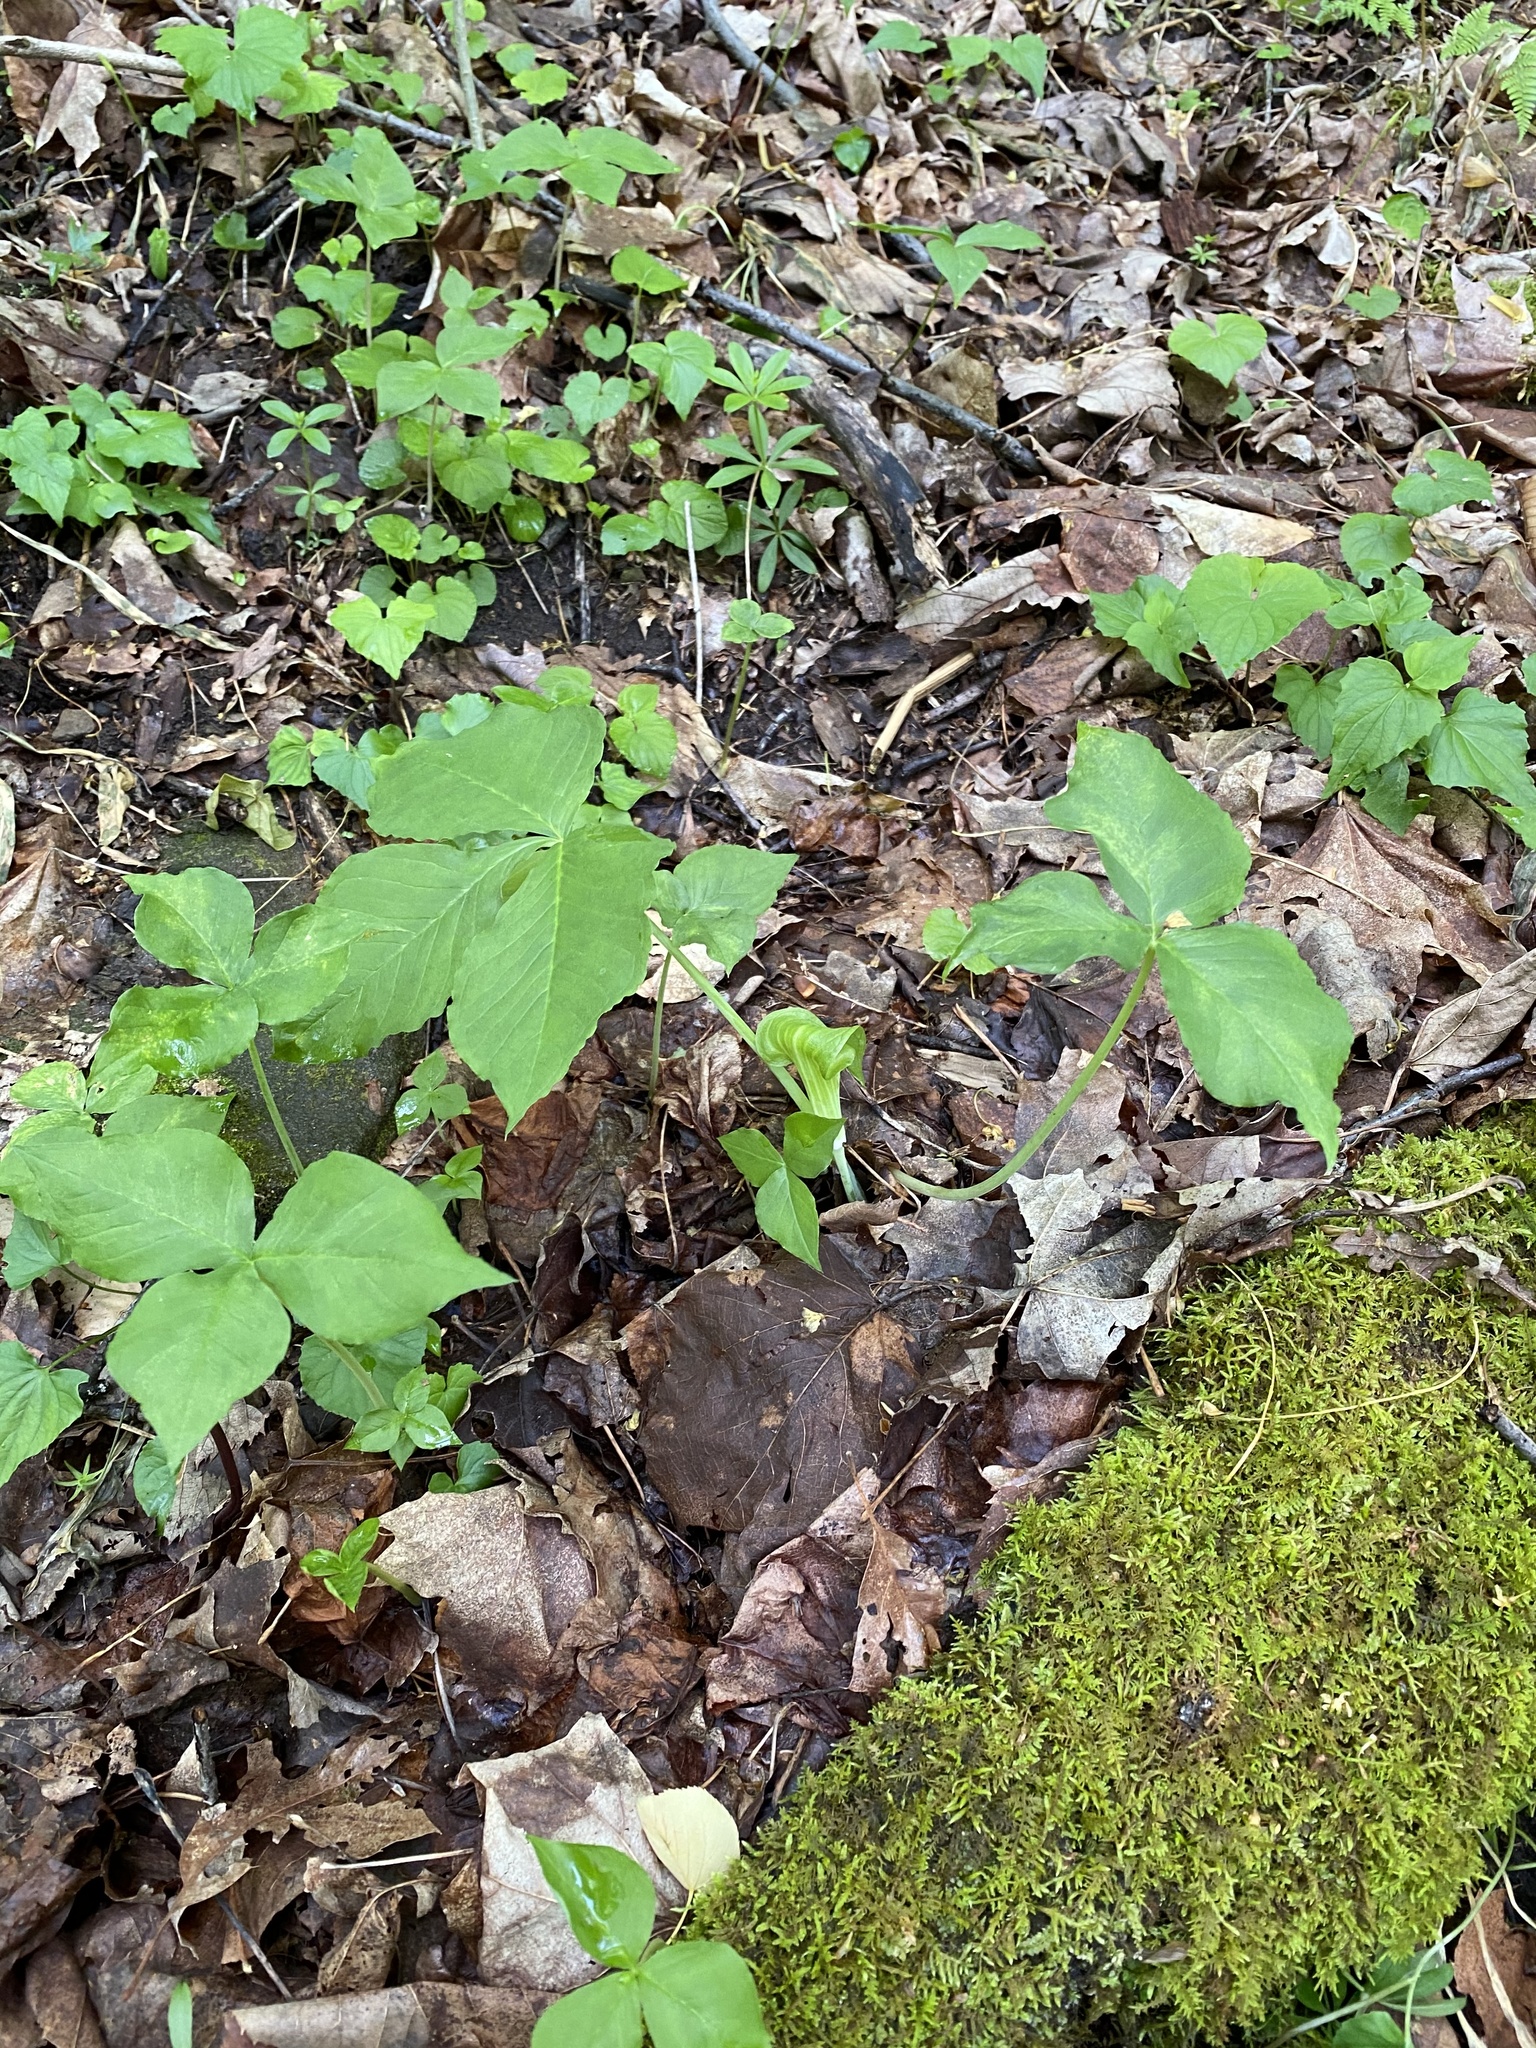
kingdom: Plantae
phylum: Tracheophyta
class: Liliopsida
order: Alismatales
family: Araceae
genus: Arisaema
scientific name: Arisaema triphyllum
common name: Jack-in-the-pulpit
